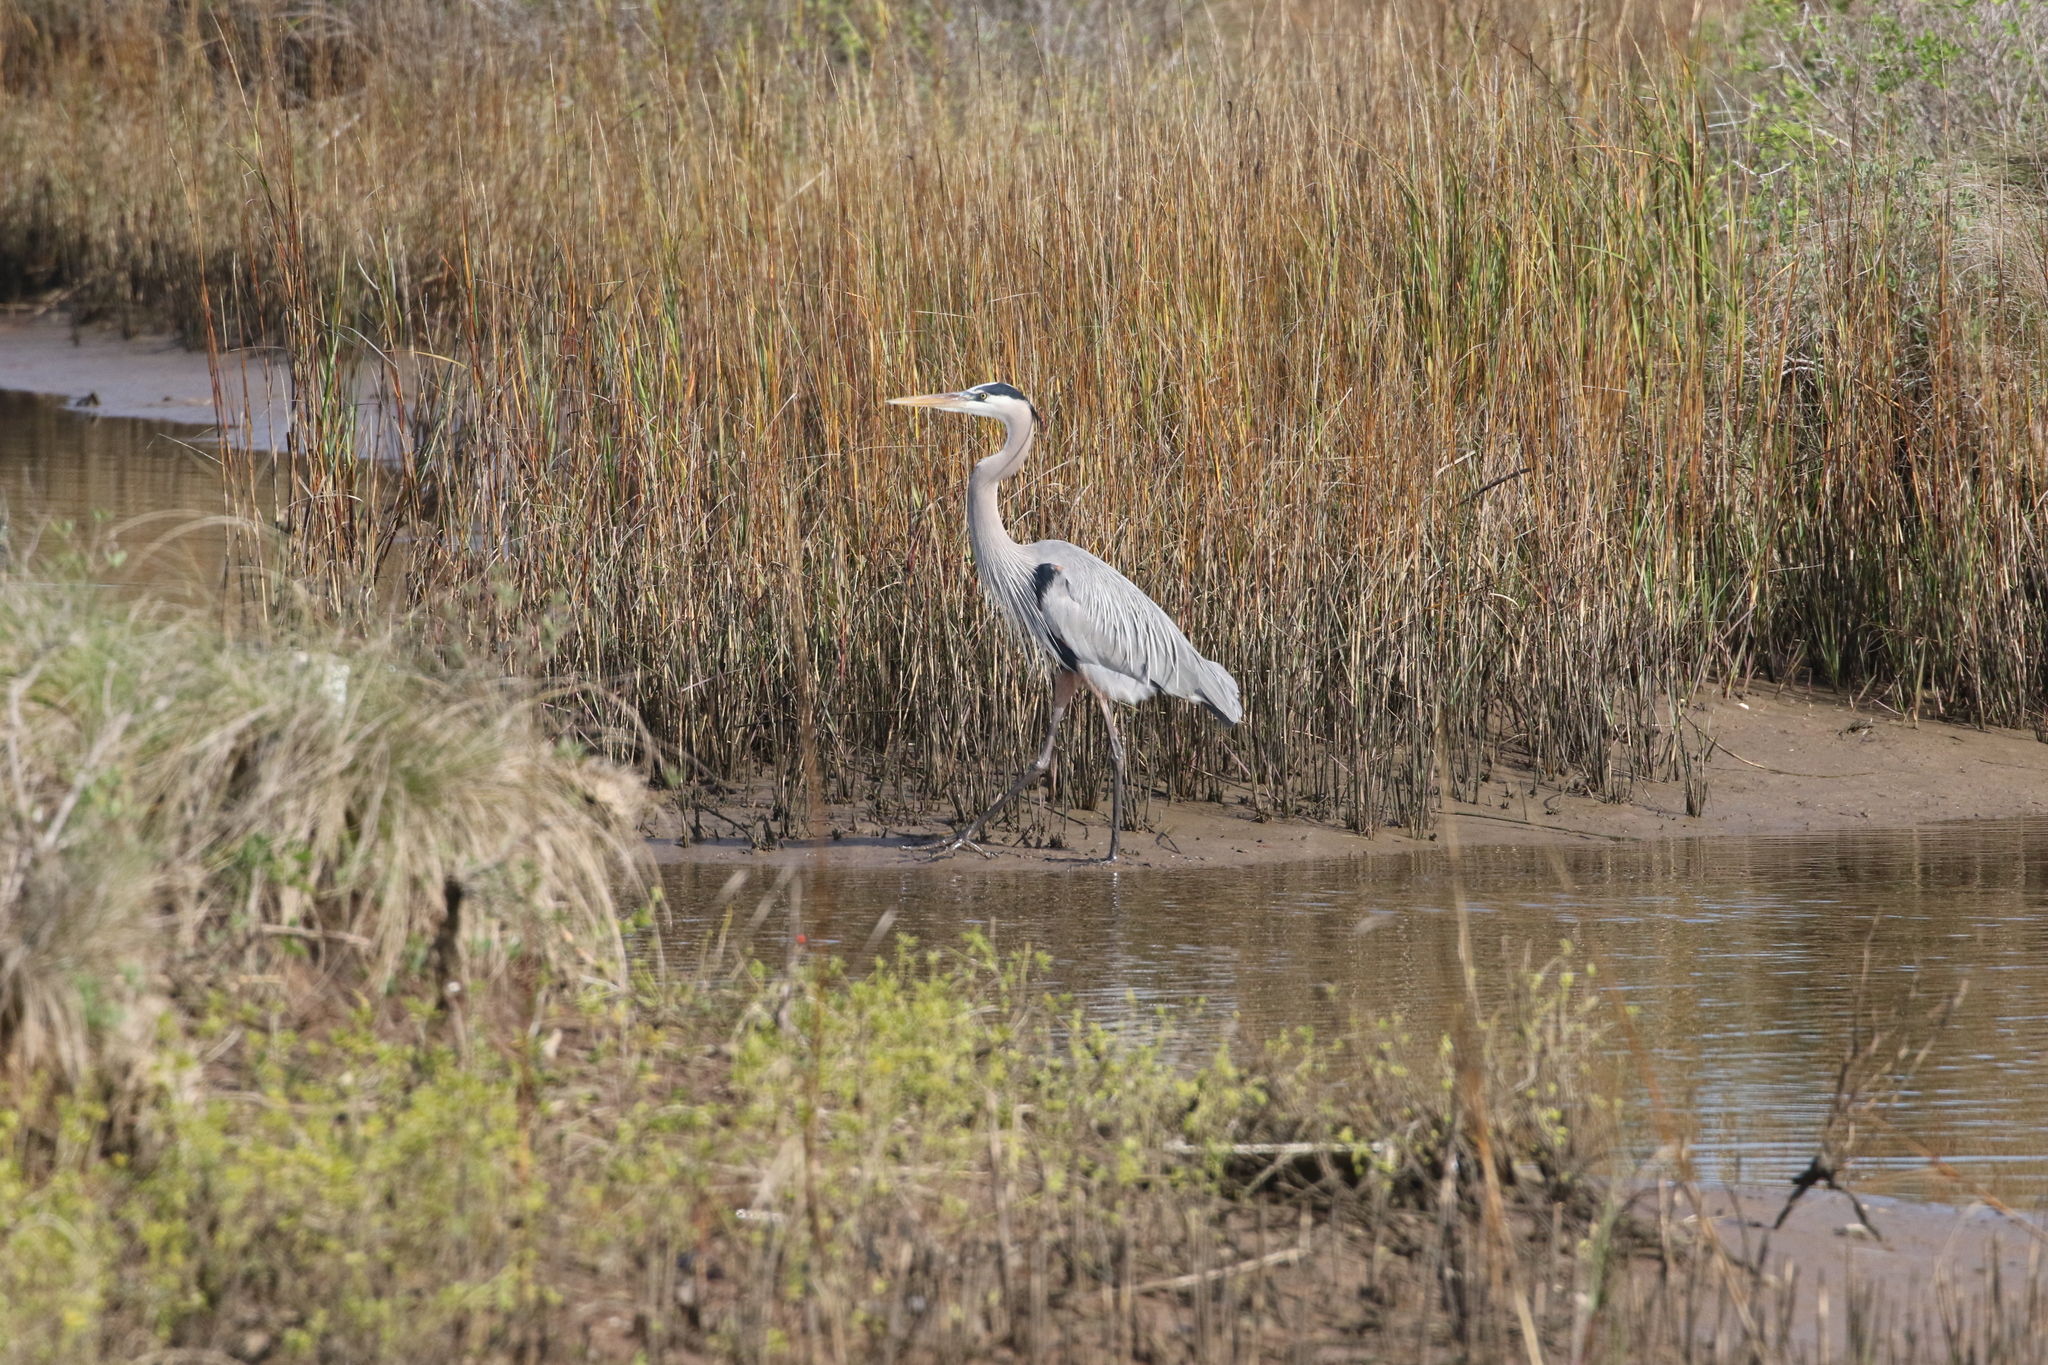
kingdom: Animalia
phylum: Chordata
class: Aves
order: Pelecaniformes
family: Ardeidae
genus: Ardea
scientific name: Ardea herodias
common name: Great blue heron
